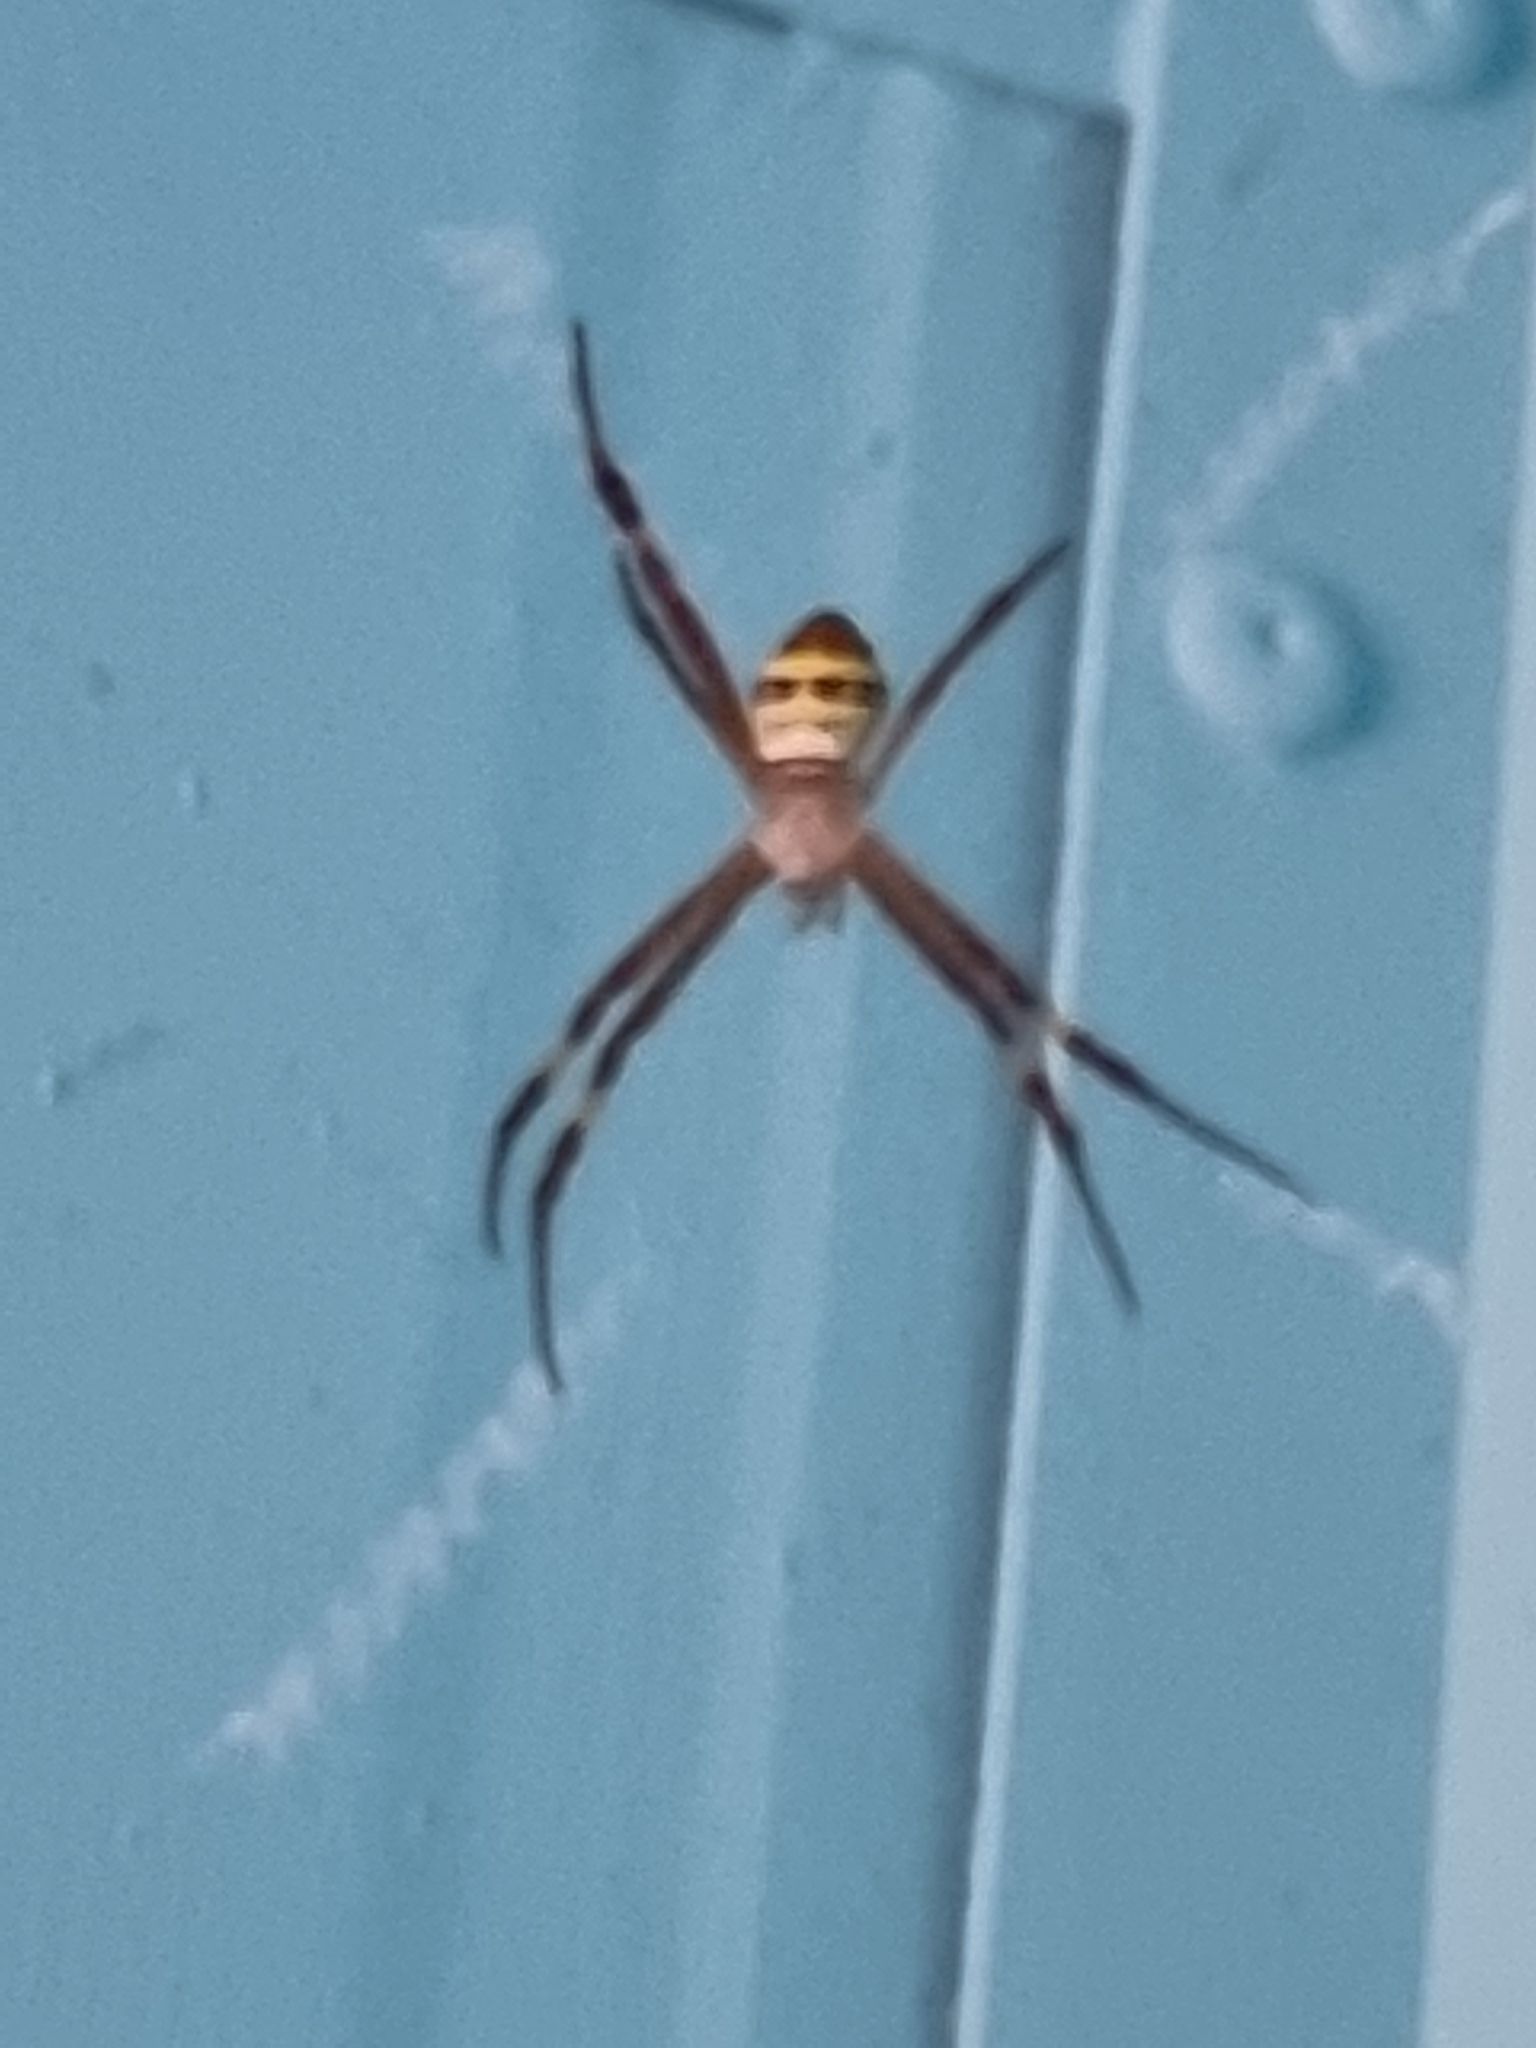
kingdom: Animalia
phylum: Arthropoda
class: Arachnida
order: Araneae
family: Araneidae
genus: Argiope
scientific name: Argiope keyserlingi
